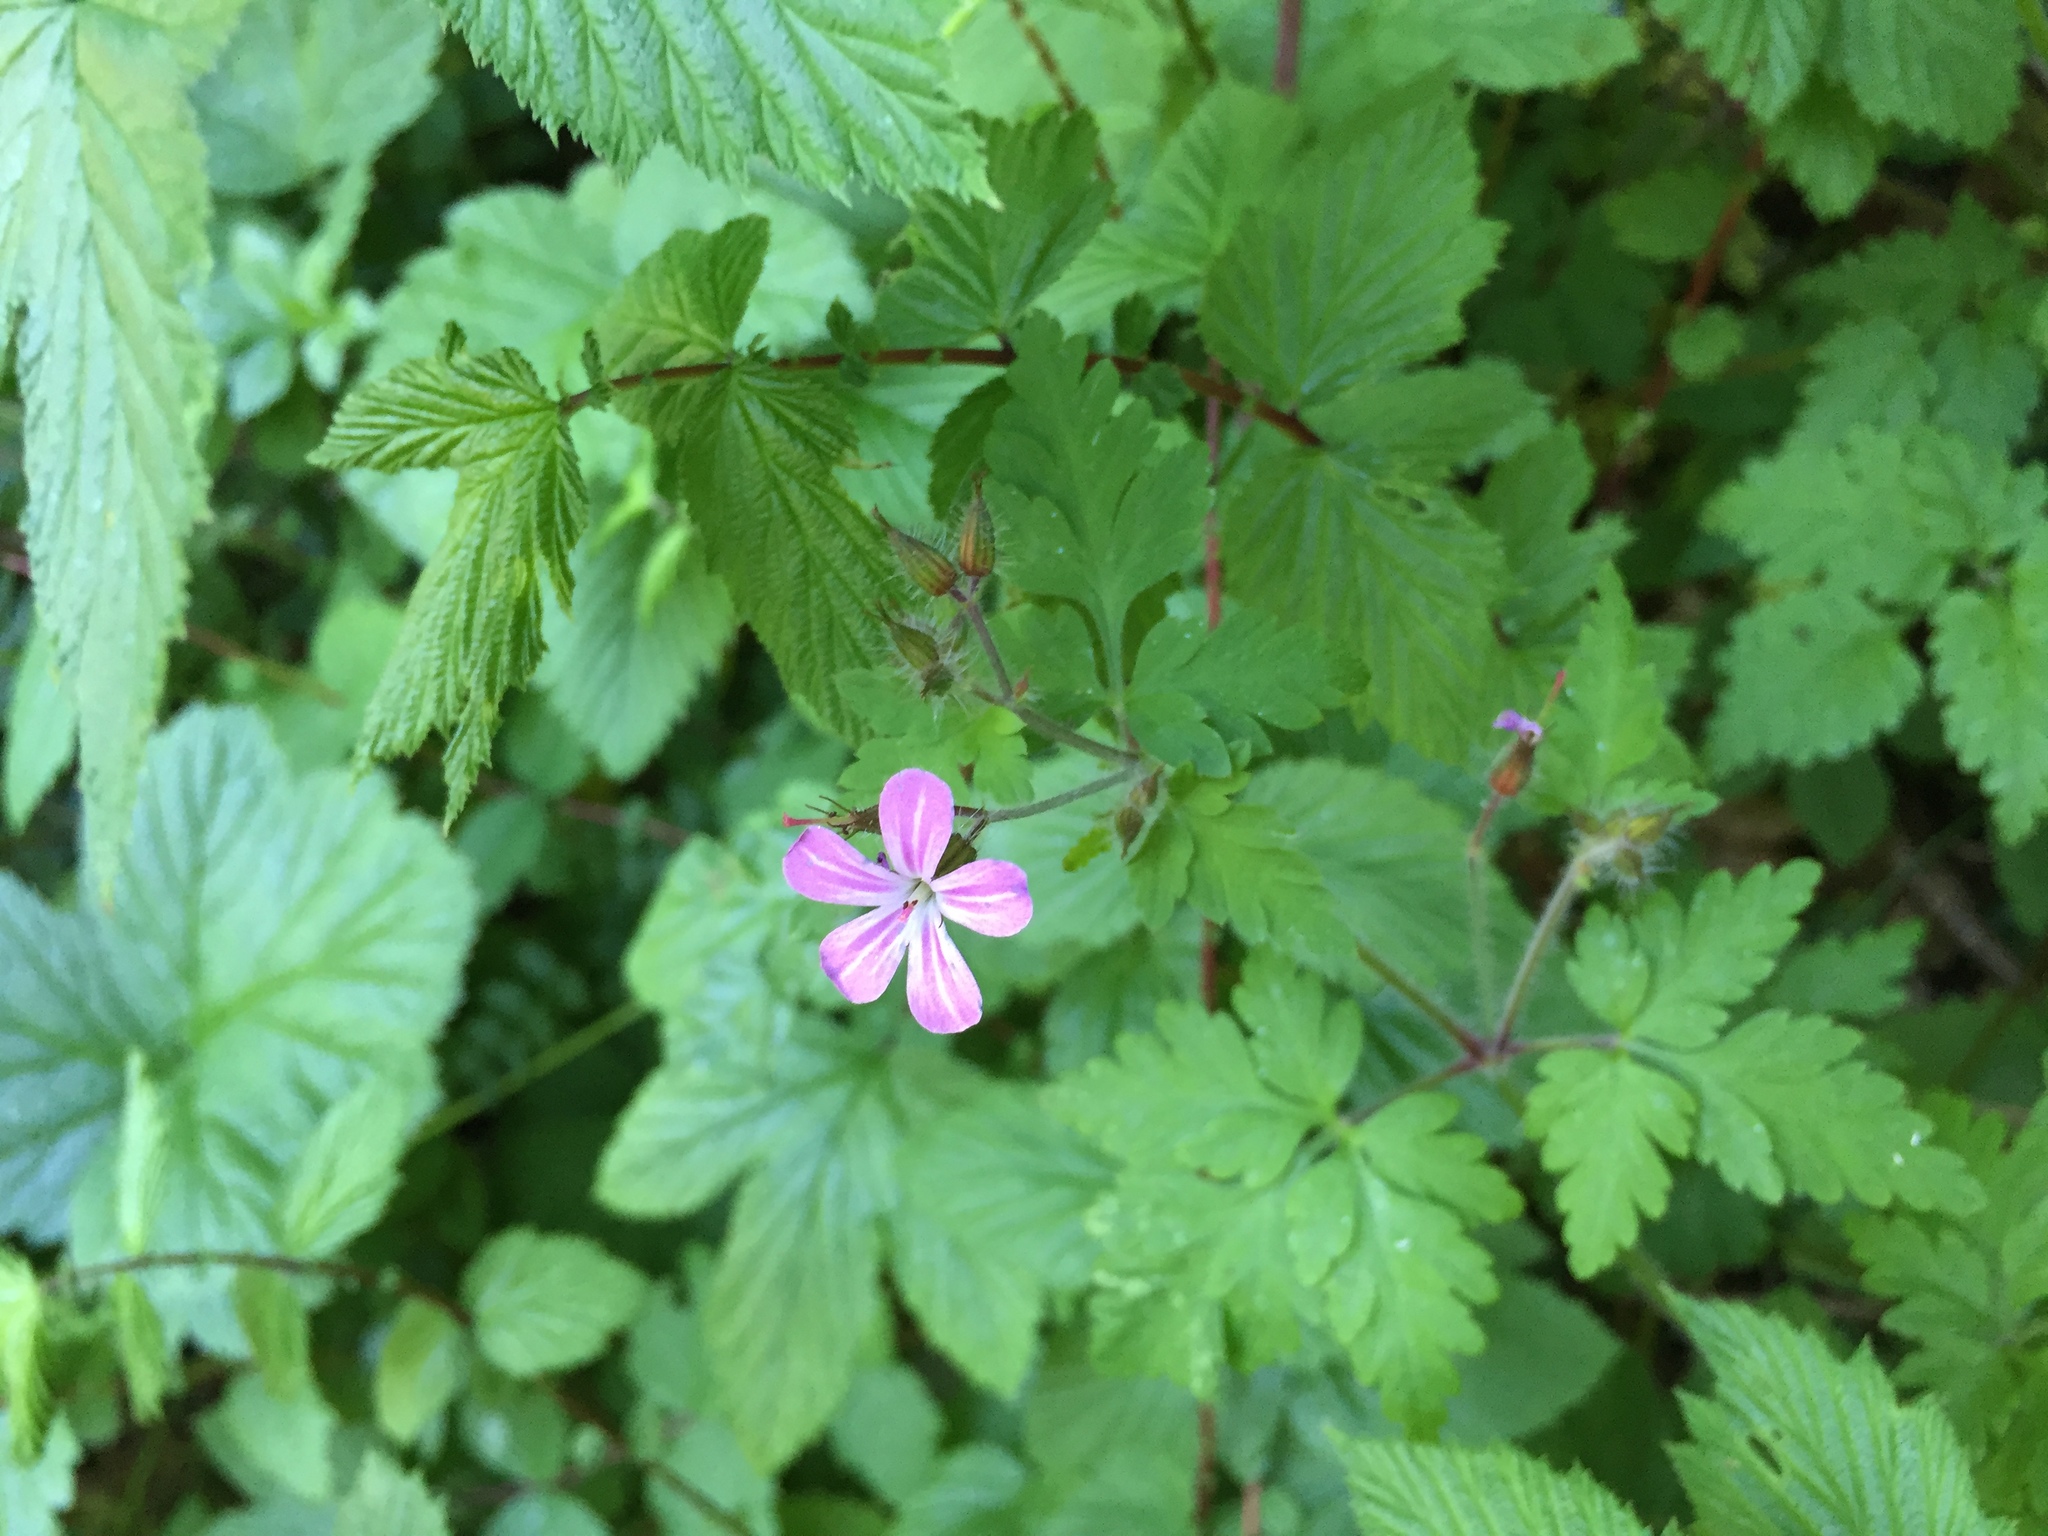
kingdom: Plantae
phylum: Tracheophyta
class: Magnoliopsida
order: Geraniales
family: Geraniaceae
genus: Geranium
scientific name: Geranium robertianum
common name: Herb-robert
